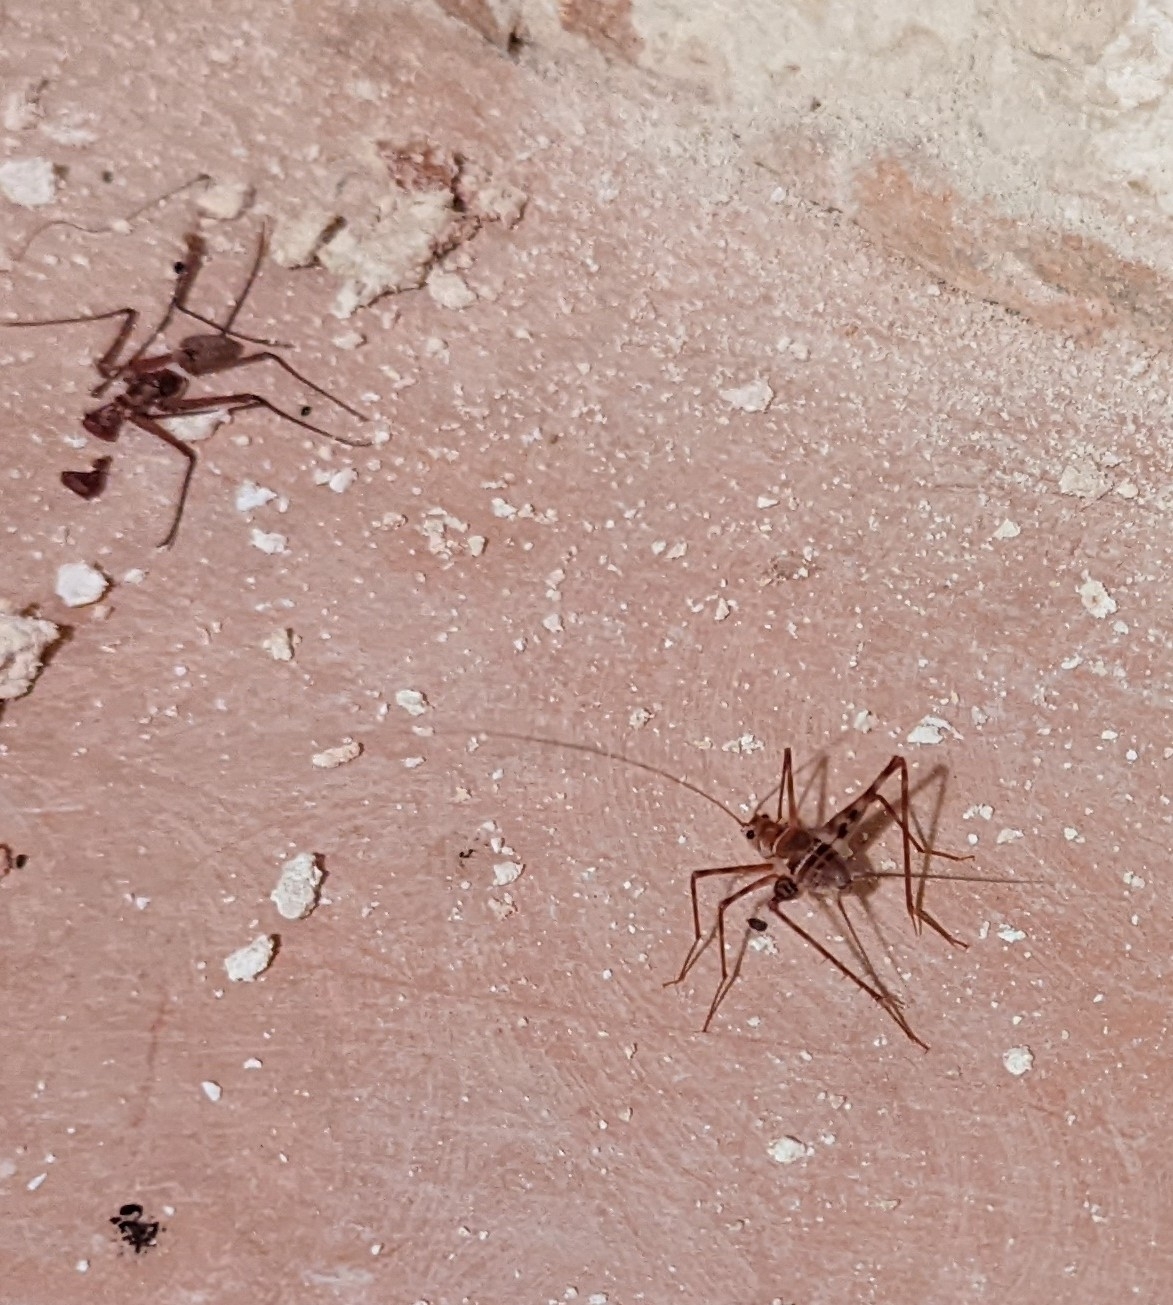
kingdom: Animalia
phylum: Arthropoda
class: Insecta
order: Orthoptera
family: Phalangopsidae
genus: Mayagryllus
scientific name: Mayagryllus yucatanus
